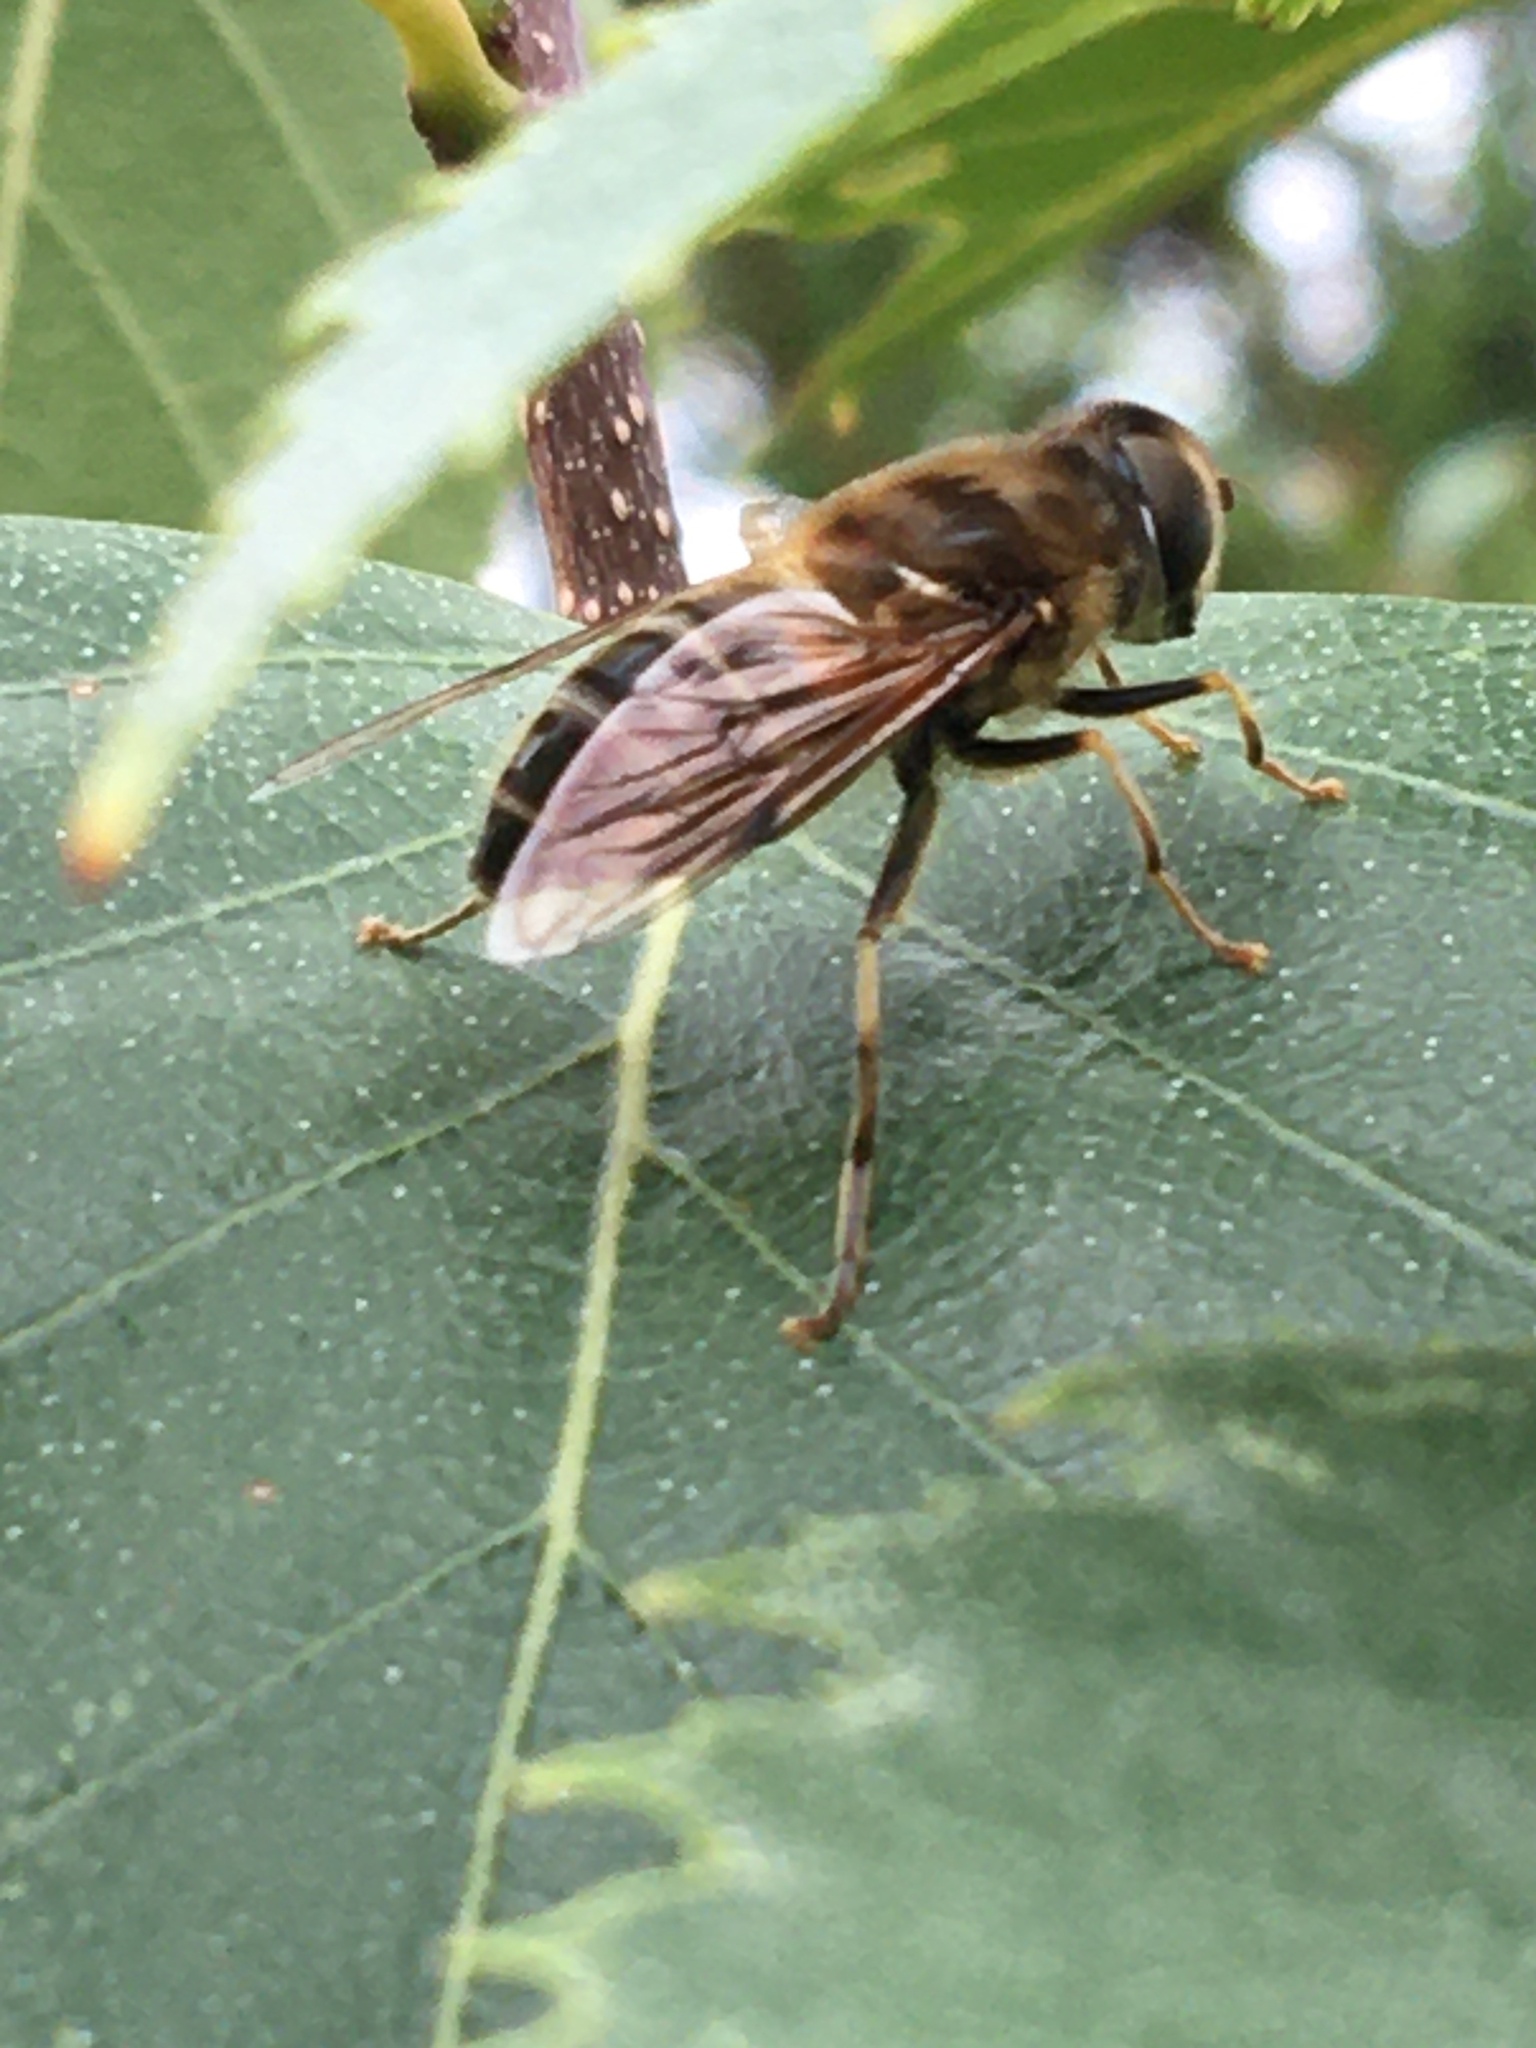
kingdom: Animalia
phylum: Arthropoda
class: Insecta
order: Diptera
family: Syrphidae
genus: Eristalis
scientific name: Eristalis pertinax
